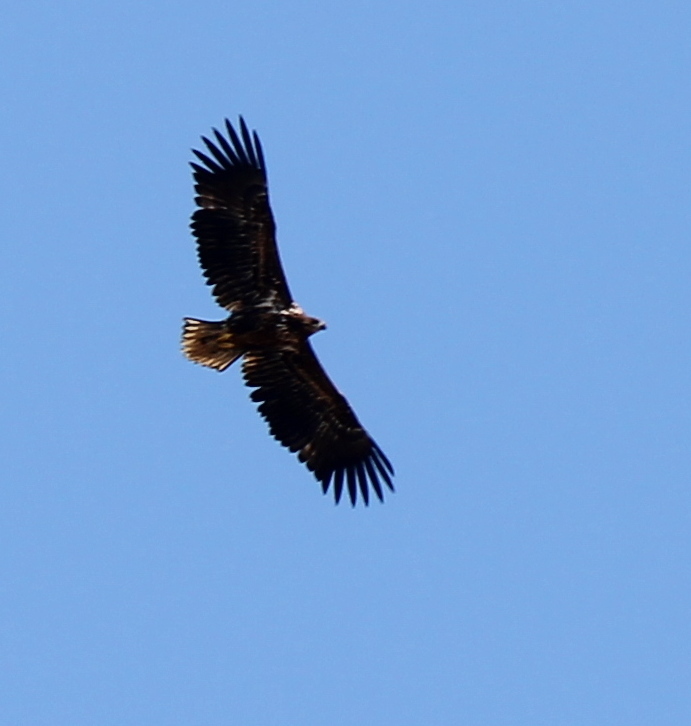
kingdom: Animalia
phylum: Chordata
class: Aves
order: Accipitriformes
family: Accipitridae
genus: Haliaeetus
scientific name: Haliaeetus albicilla
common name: White-tailed eagle
